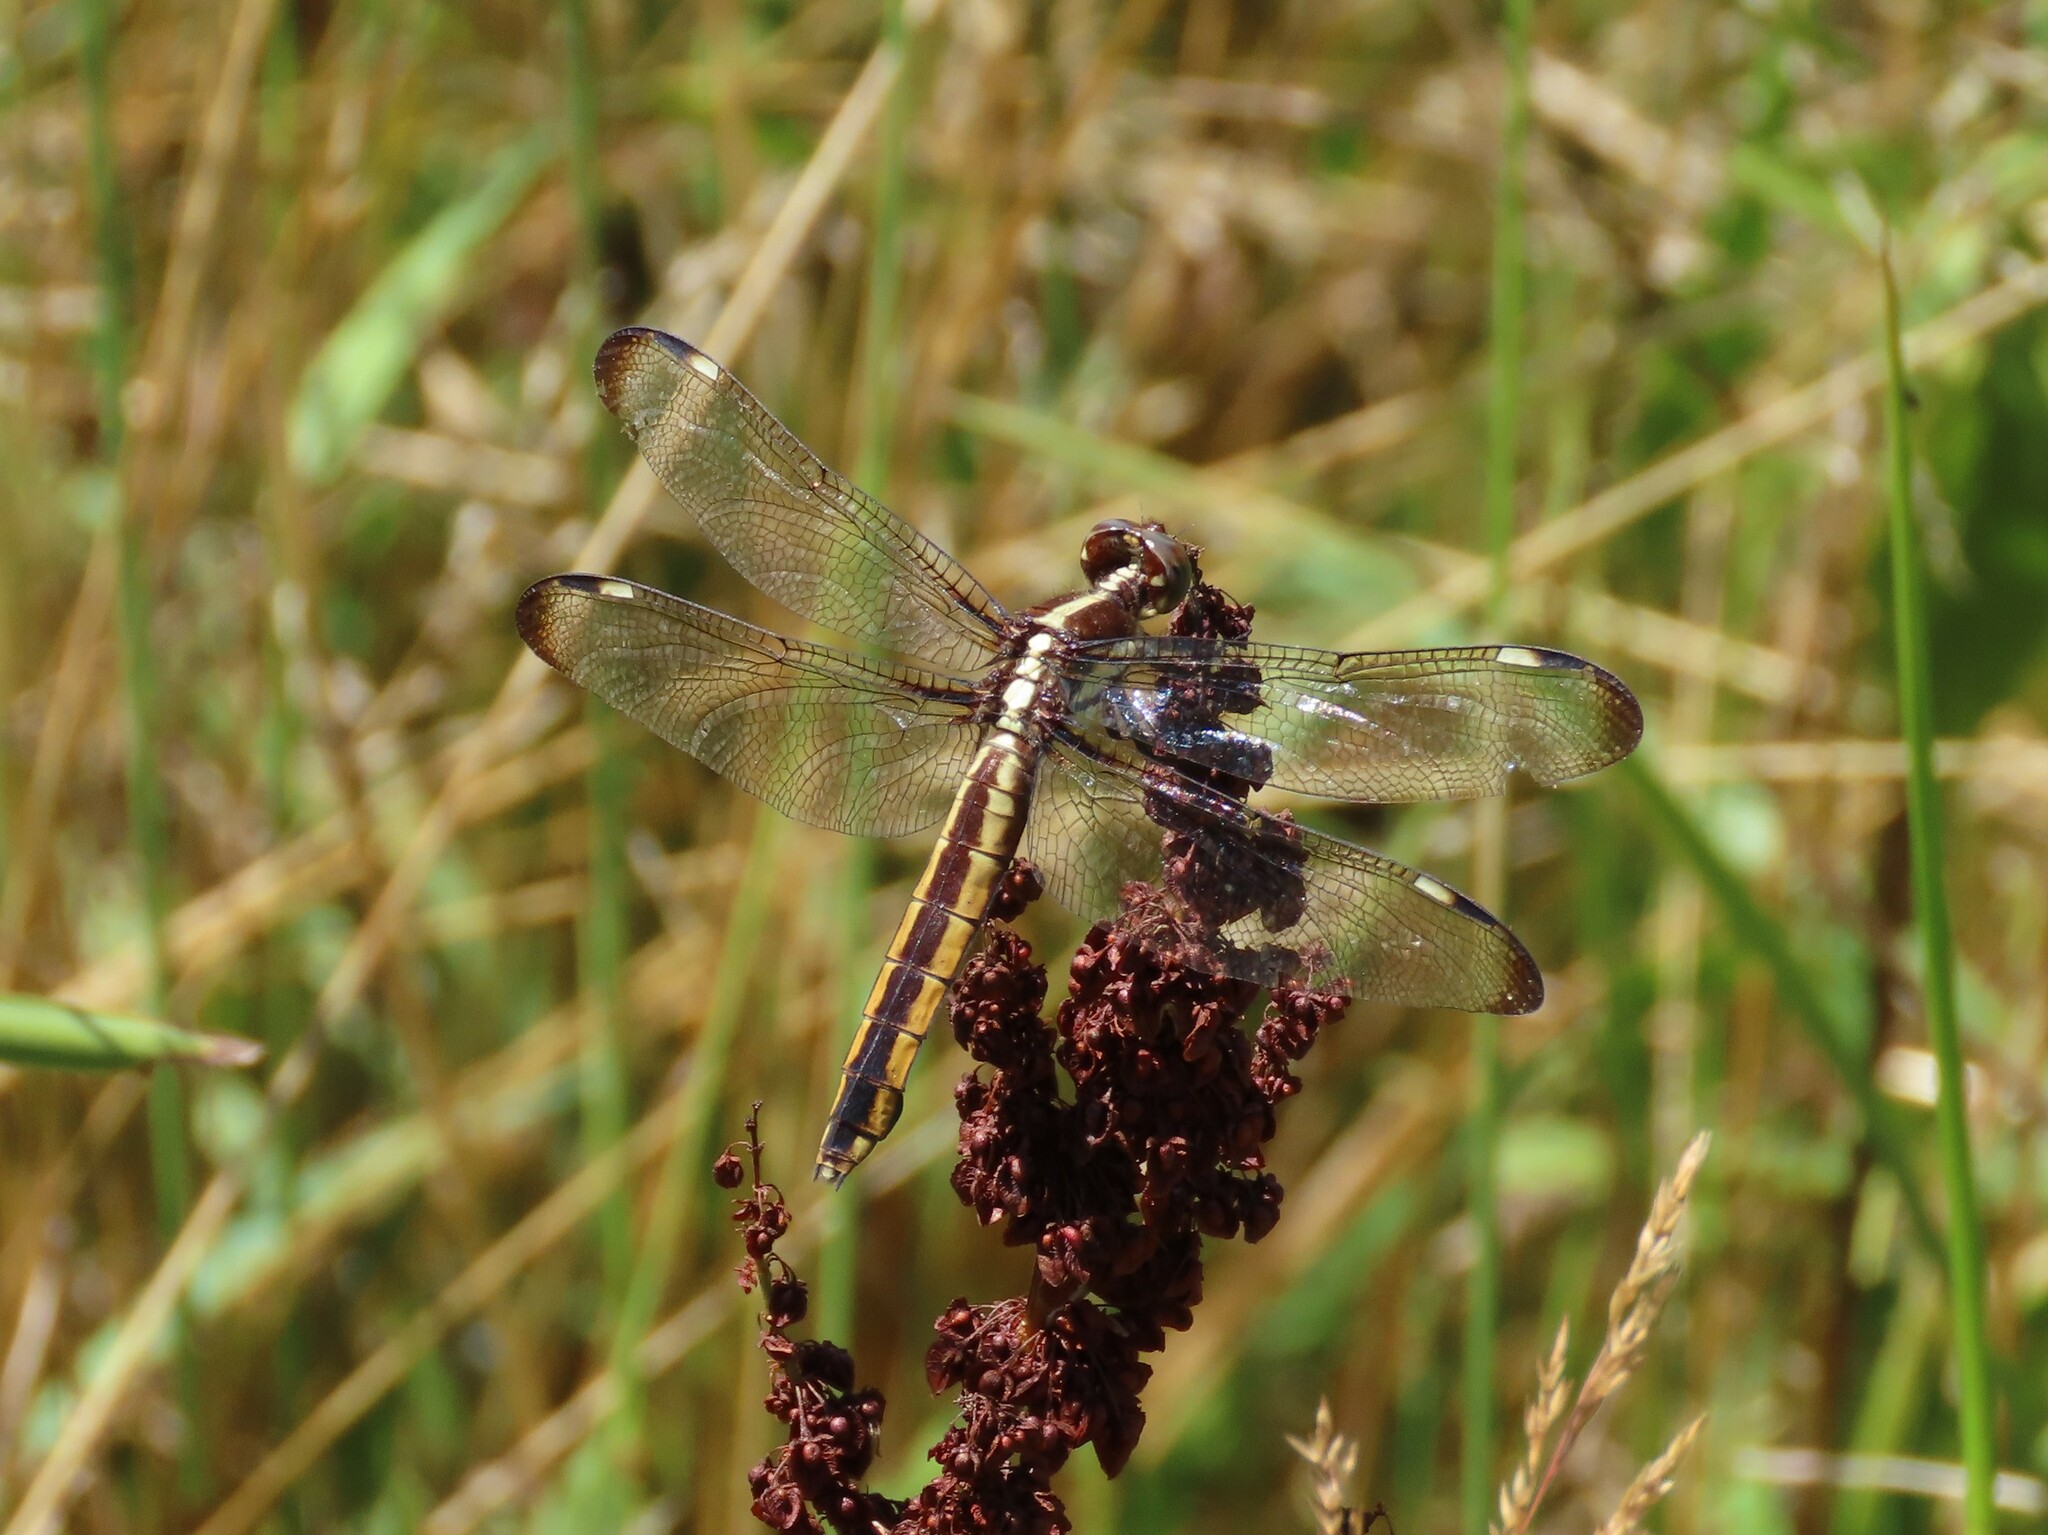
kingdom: Animalia
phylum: Arthropoda
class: Insecta
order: Odonata
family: Libellulidae
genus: Libellula
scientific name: Libellula cyanea
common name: Spangled skimmer
